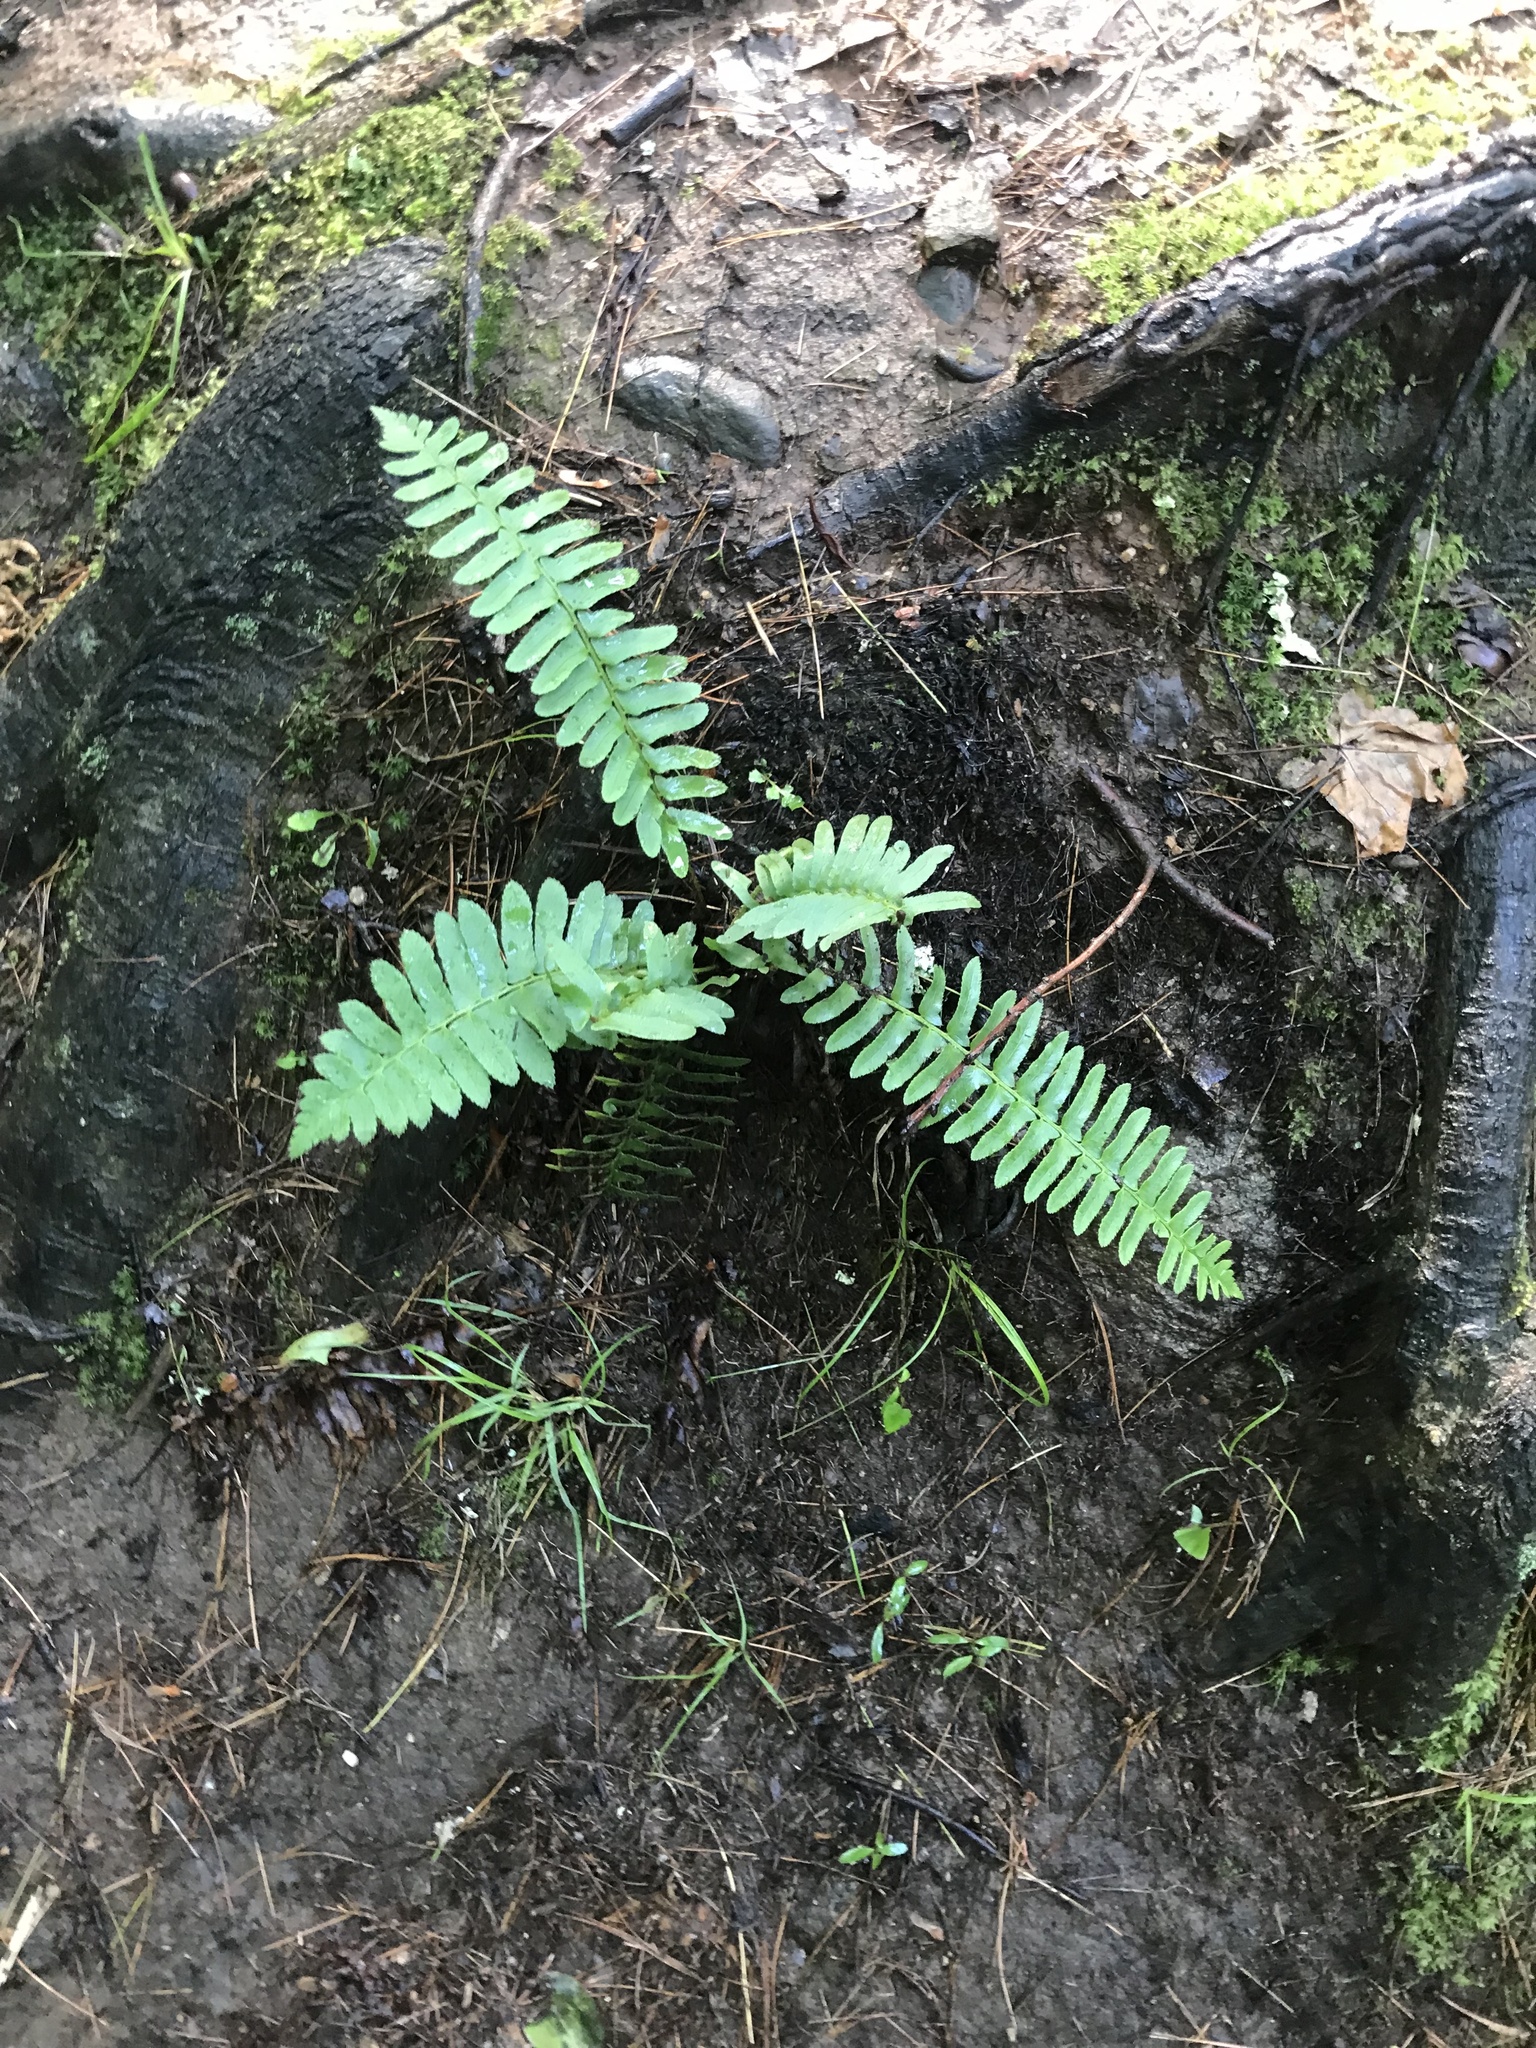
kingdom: Plantae
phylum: Tracheophyta
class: Polypodiopsida
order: Polypodiales
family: Dryopteridaceae
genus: Polystichum
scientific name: Polystichum acrostichoides
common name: Christmas fern
